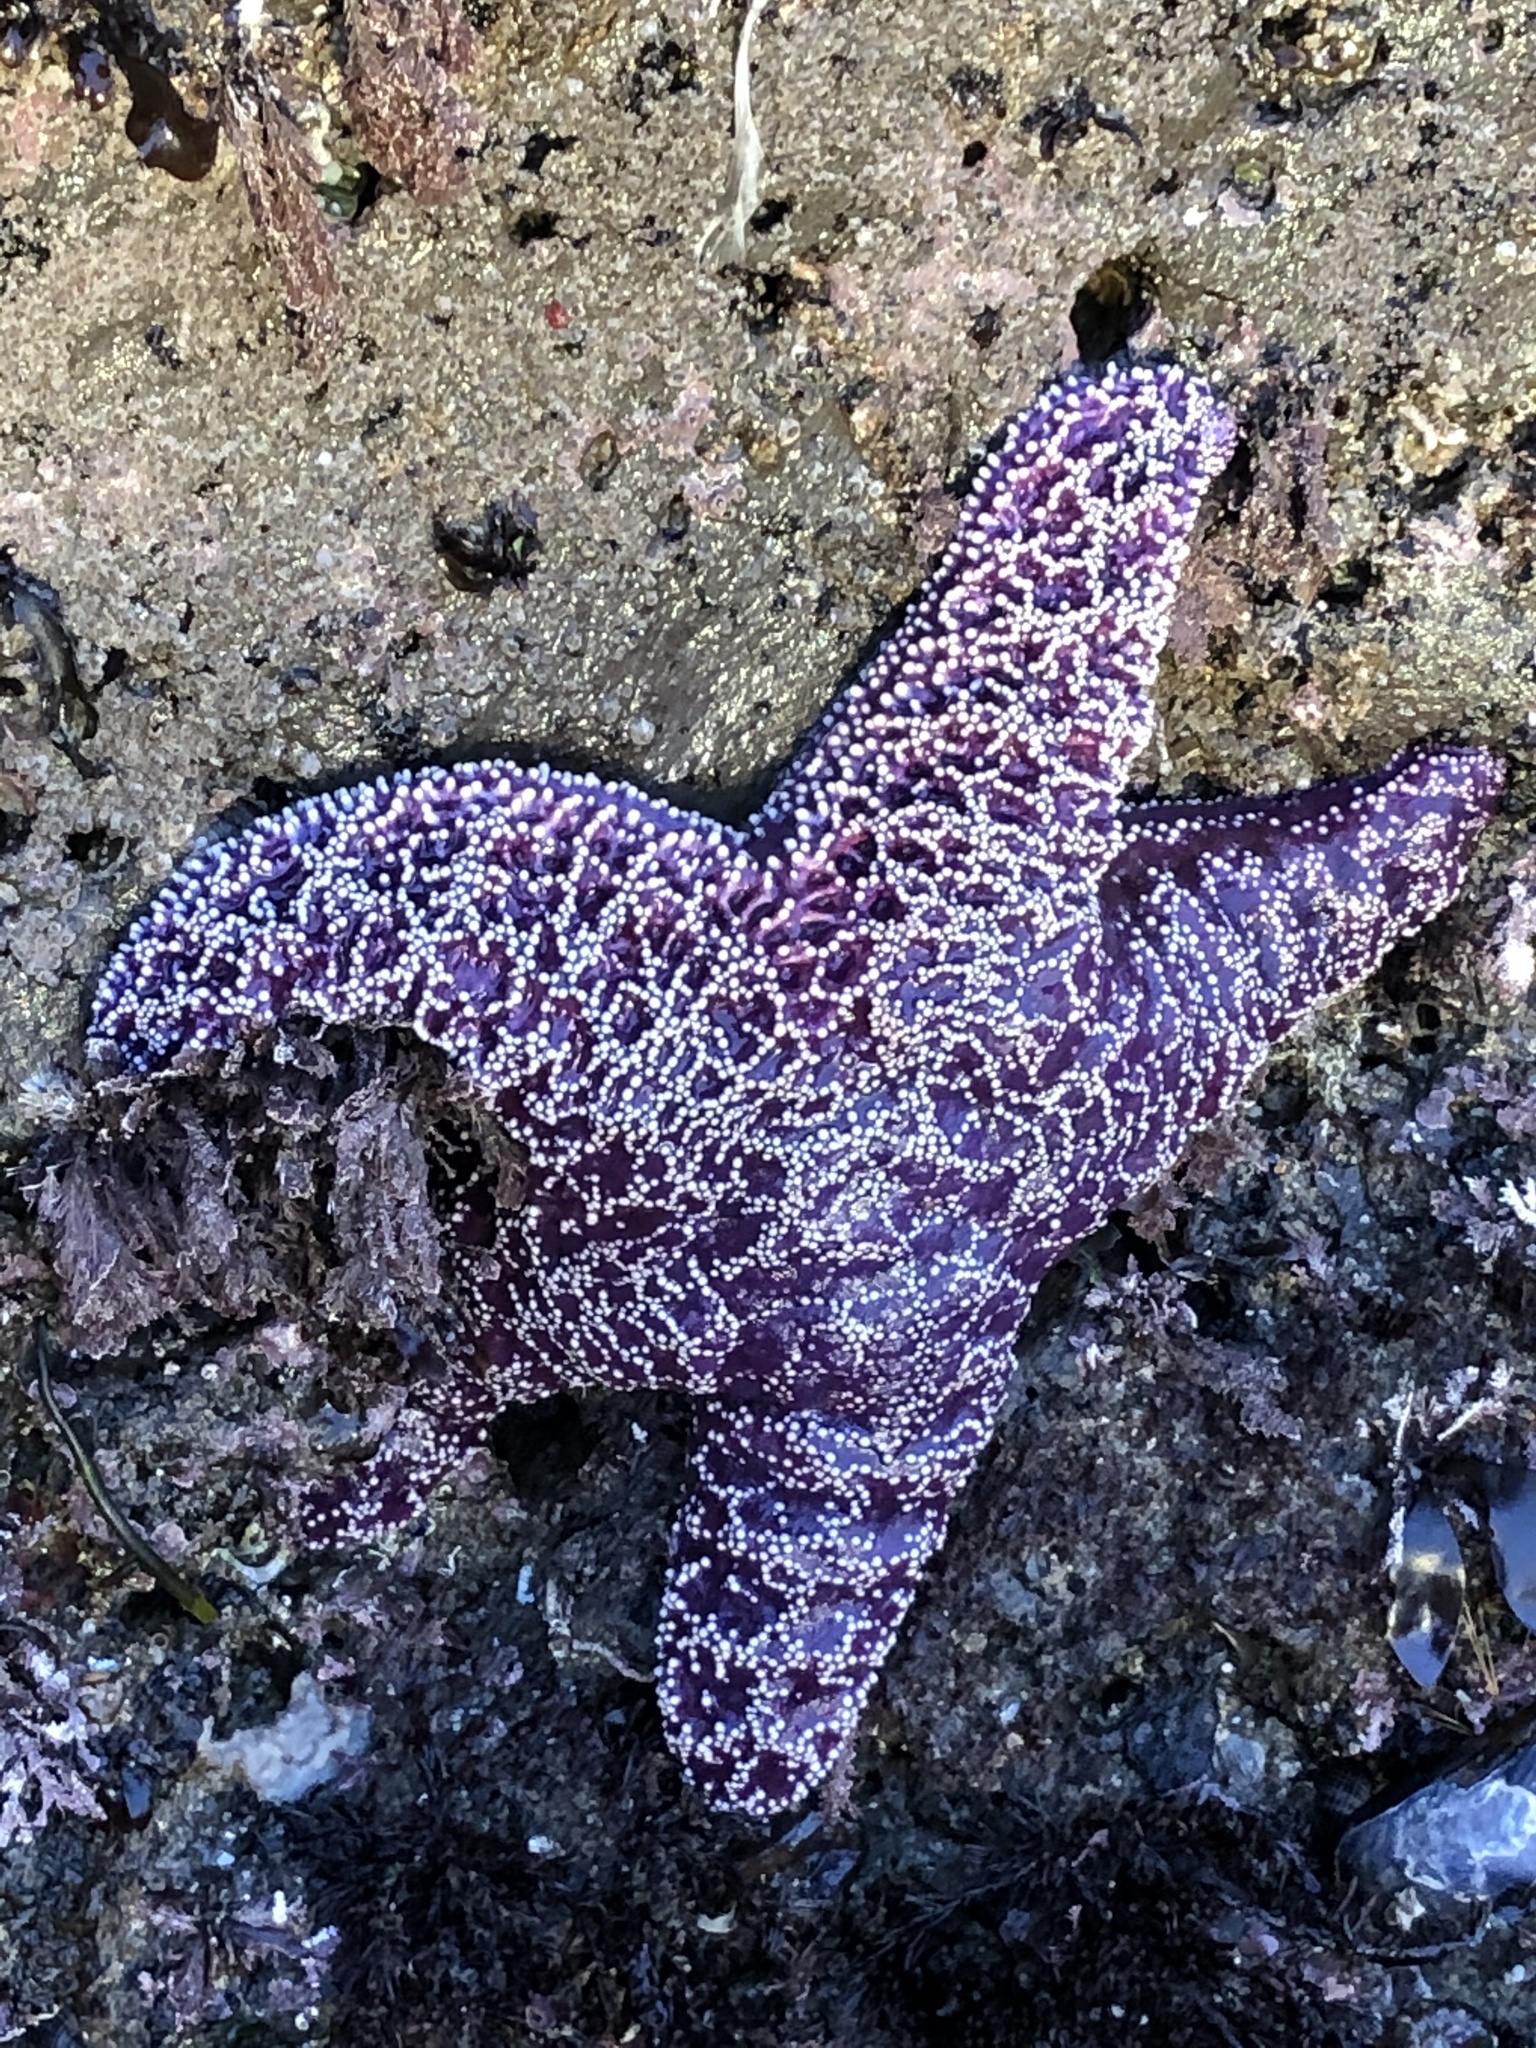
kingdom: Animalia
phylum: Echinodermata
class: Asteroidea
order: Forcipulatida
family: Asteriidae
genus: Pisaster
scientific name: Pisaster ochraceus
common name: Ochre stars
